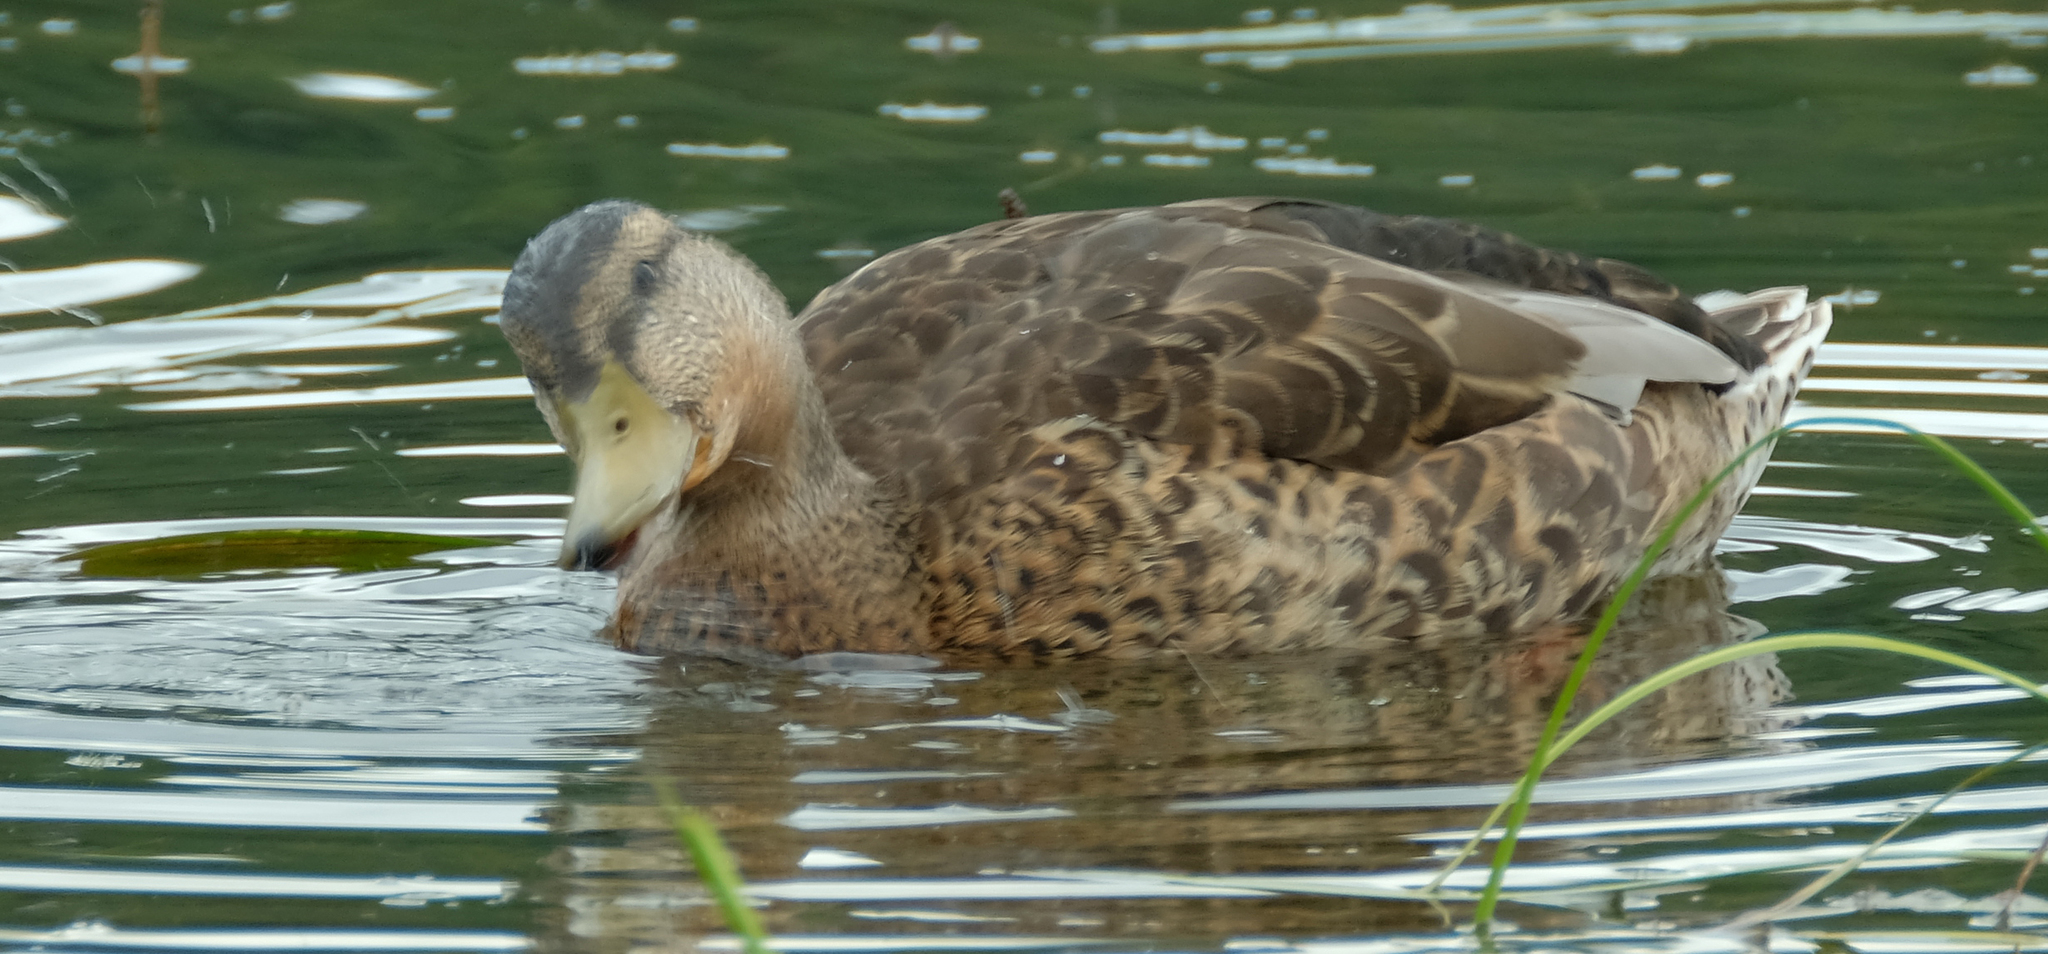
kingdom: Animalia
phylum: Chordata
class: Aves
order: Anseriformes
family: Anatidae
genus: Anas
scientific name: Anas platyrhynchos
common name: Mallard
